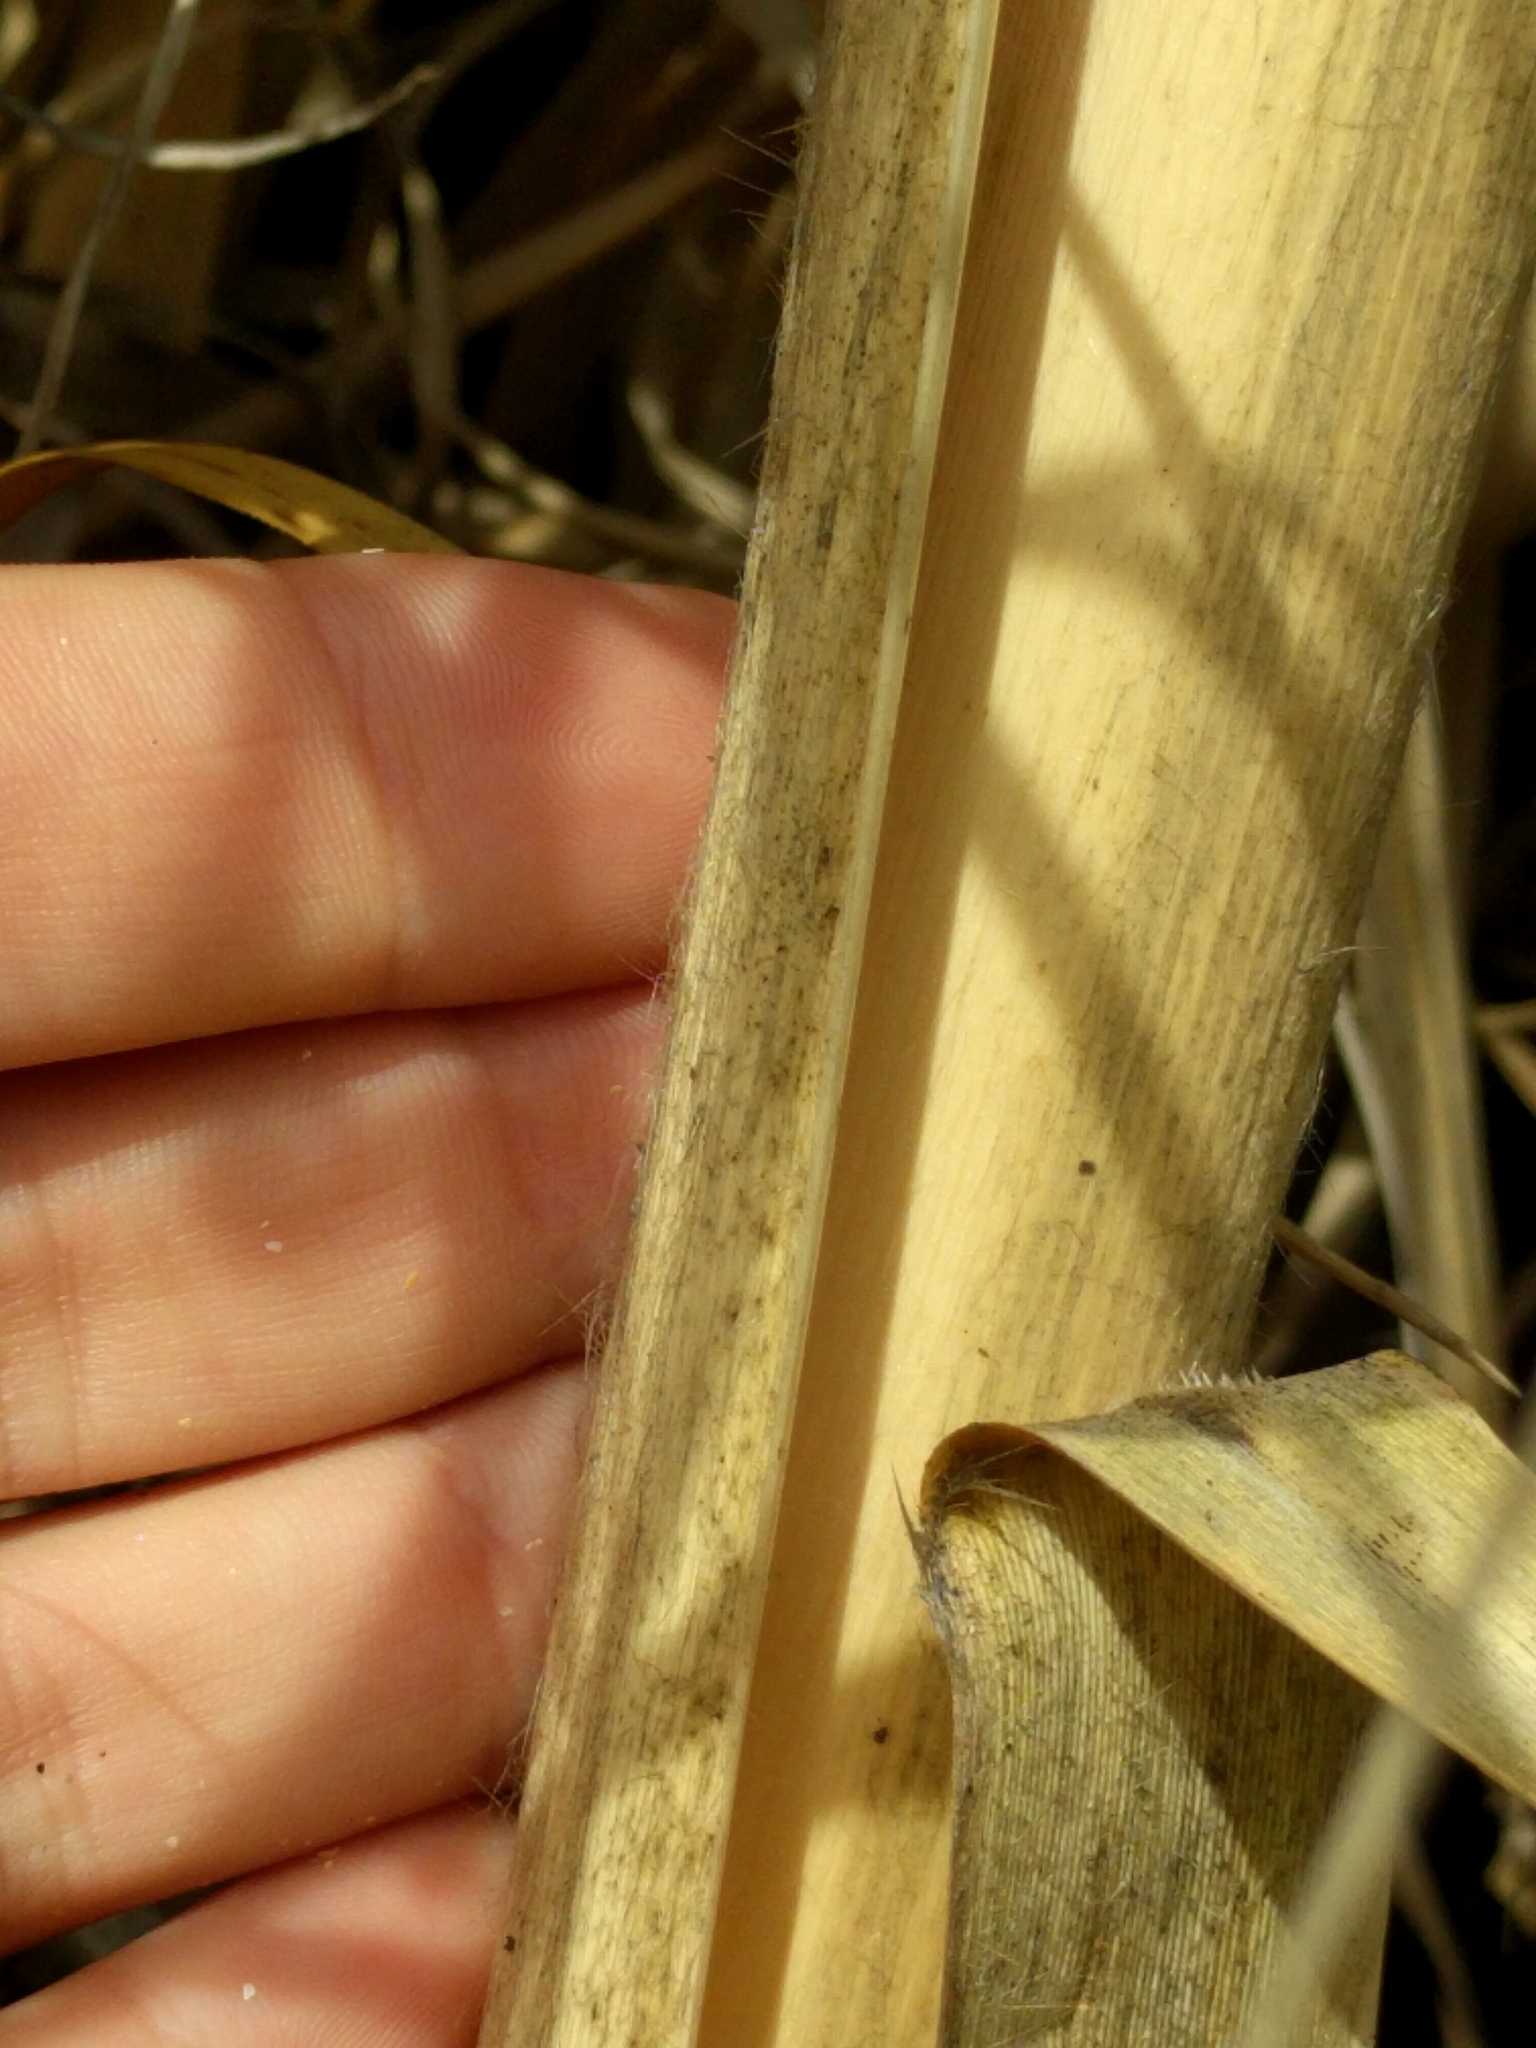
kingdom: Plantae
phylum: Tracheophyta
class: Liliopsida
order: Poales
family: Poaceae
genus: Cortaderia
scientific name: Cortaderia jubata
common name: Purple pampas grass
